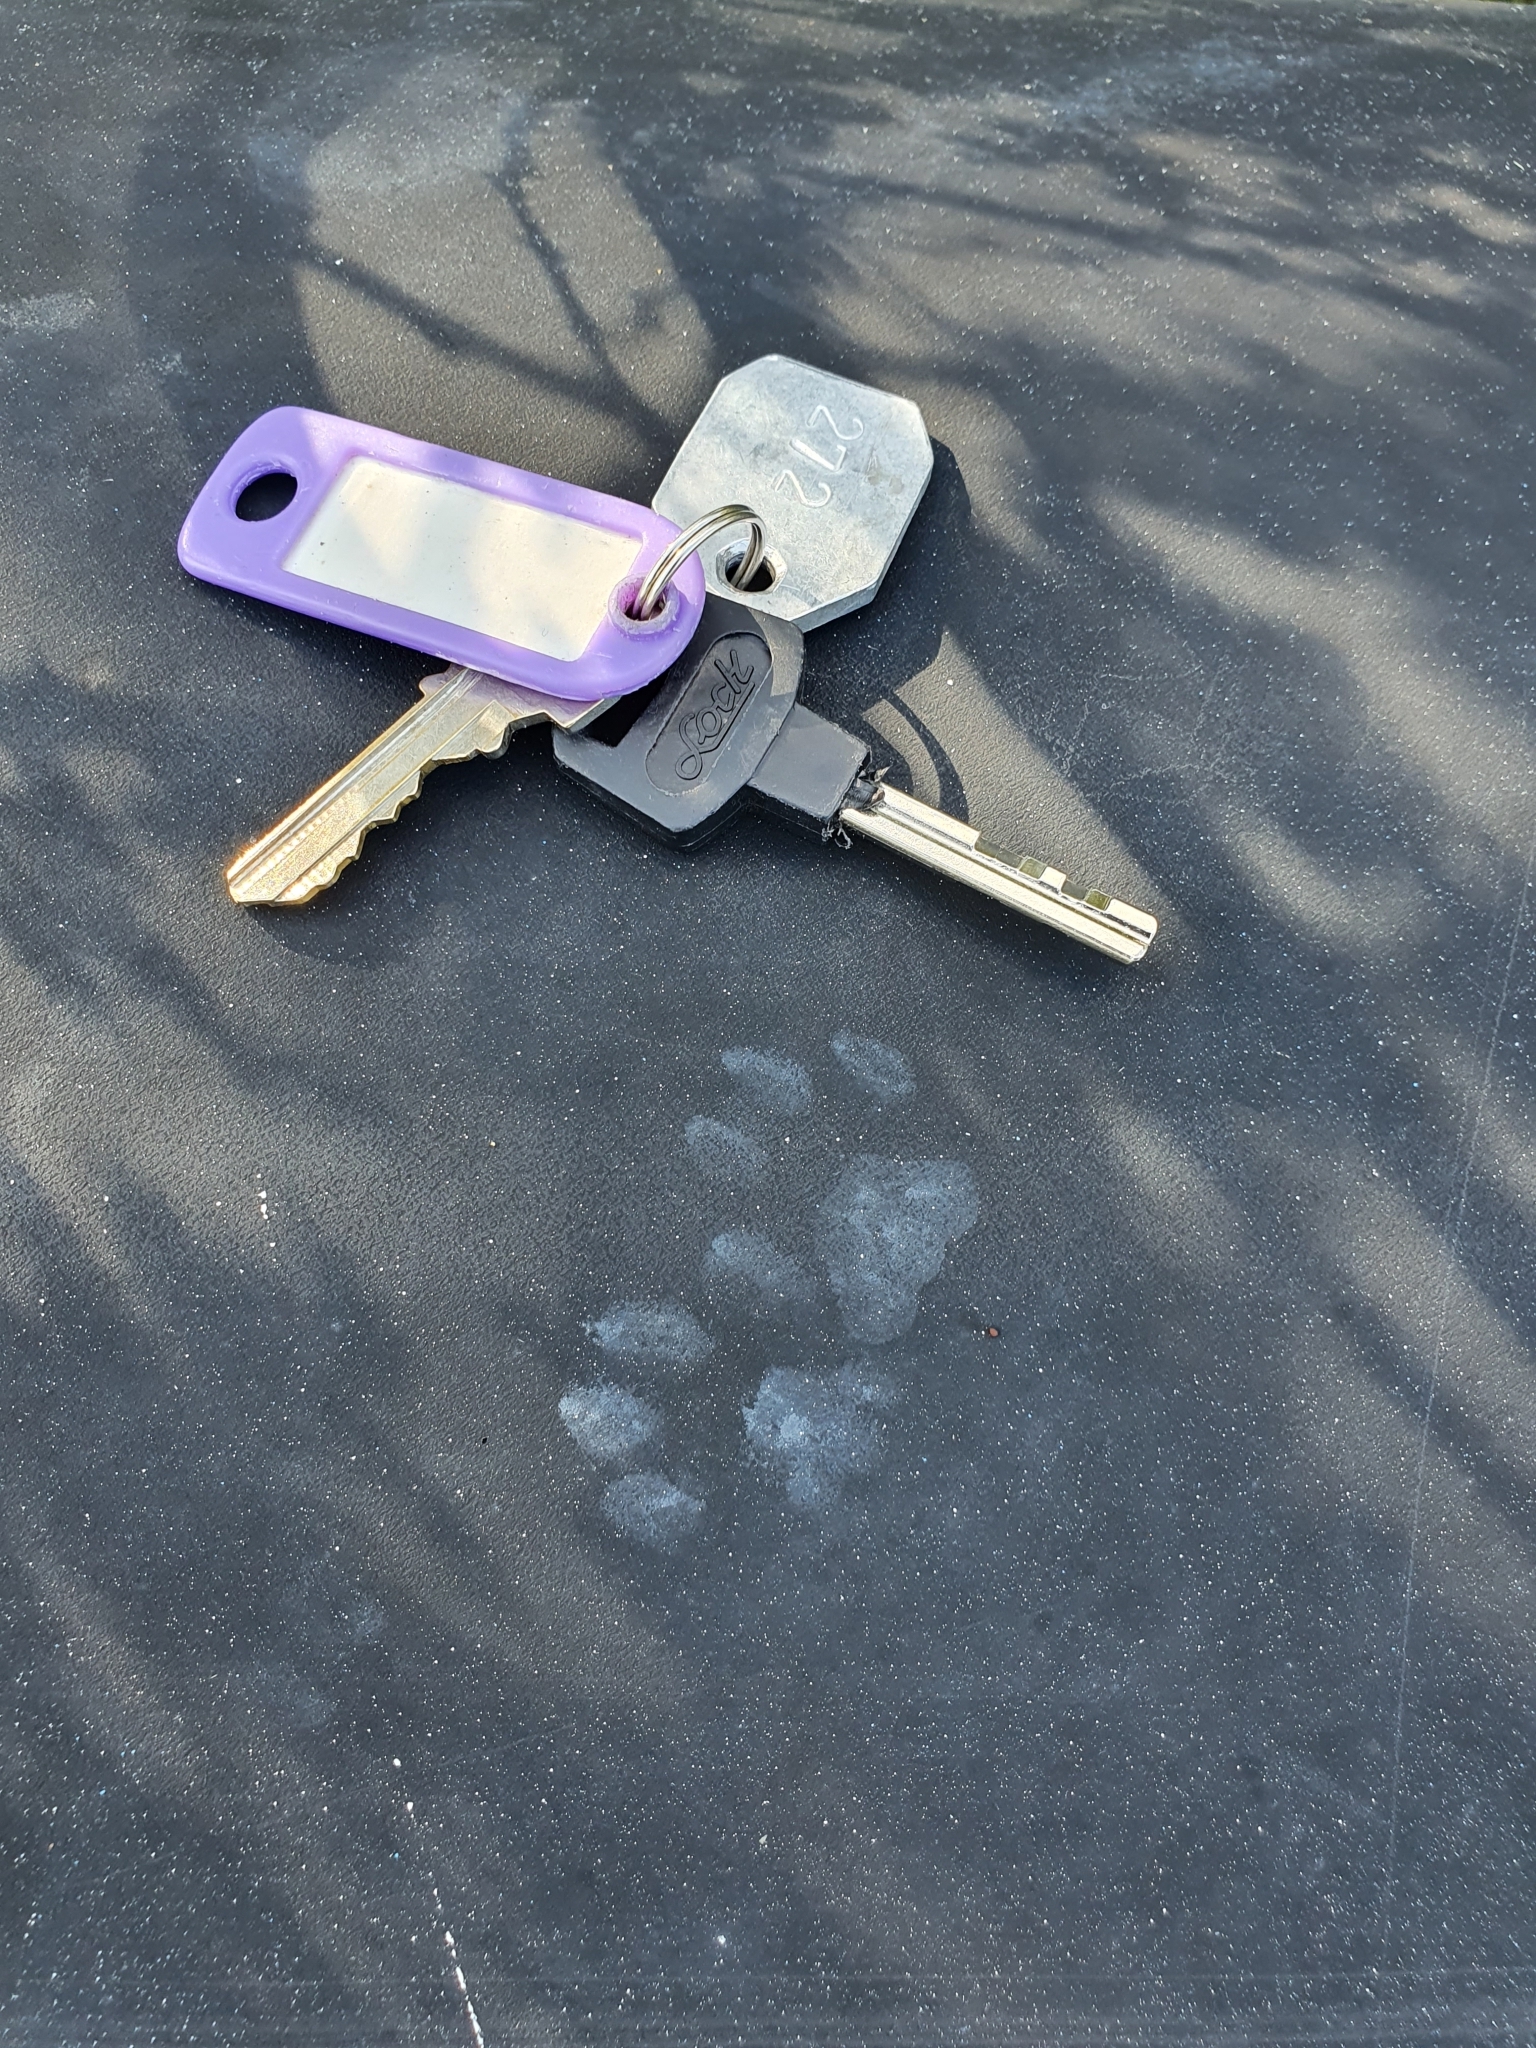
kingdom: Animalia
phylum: Chordata
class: Mammalia
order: Carnivora
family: Felidae
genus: Felis
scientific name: Felis catus
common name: Domestic cat
